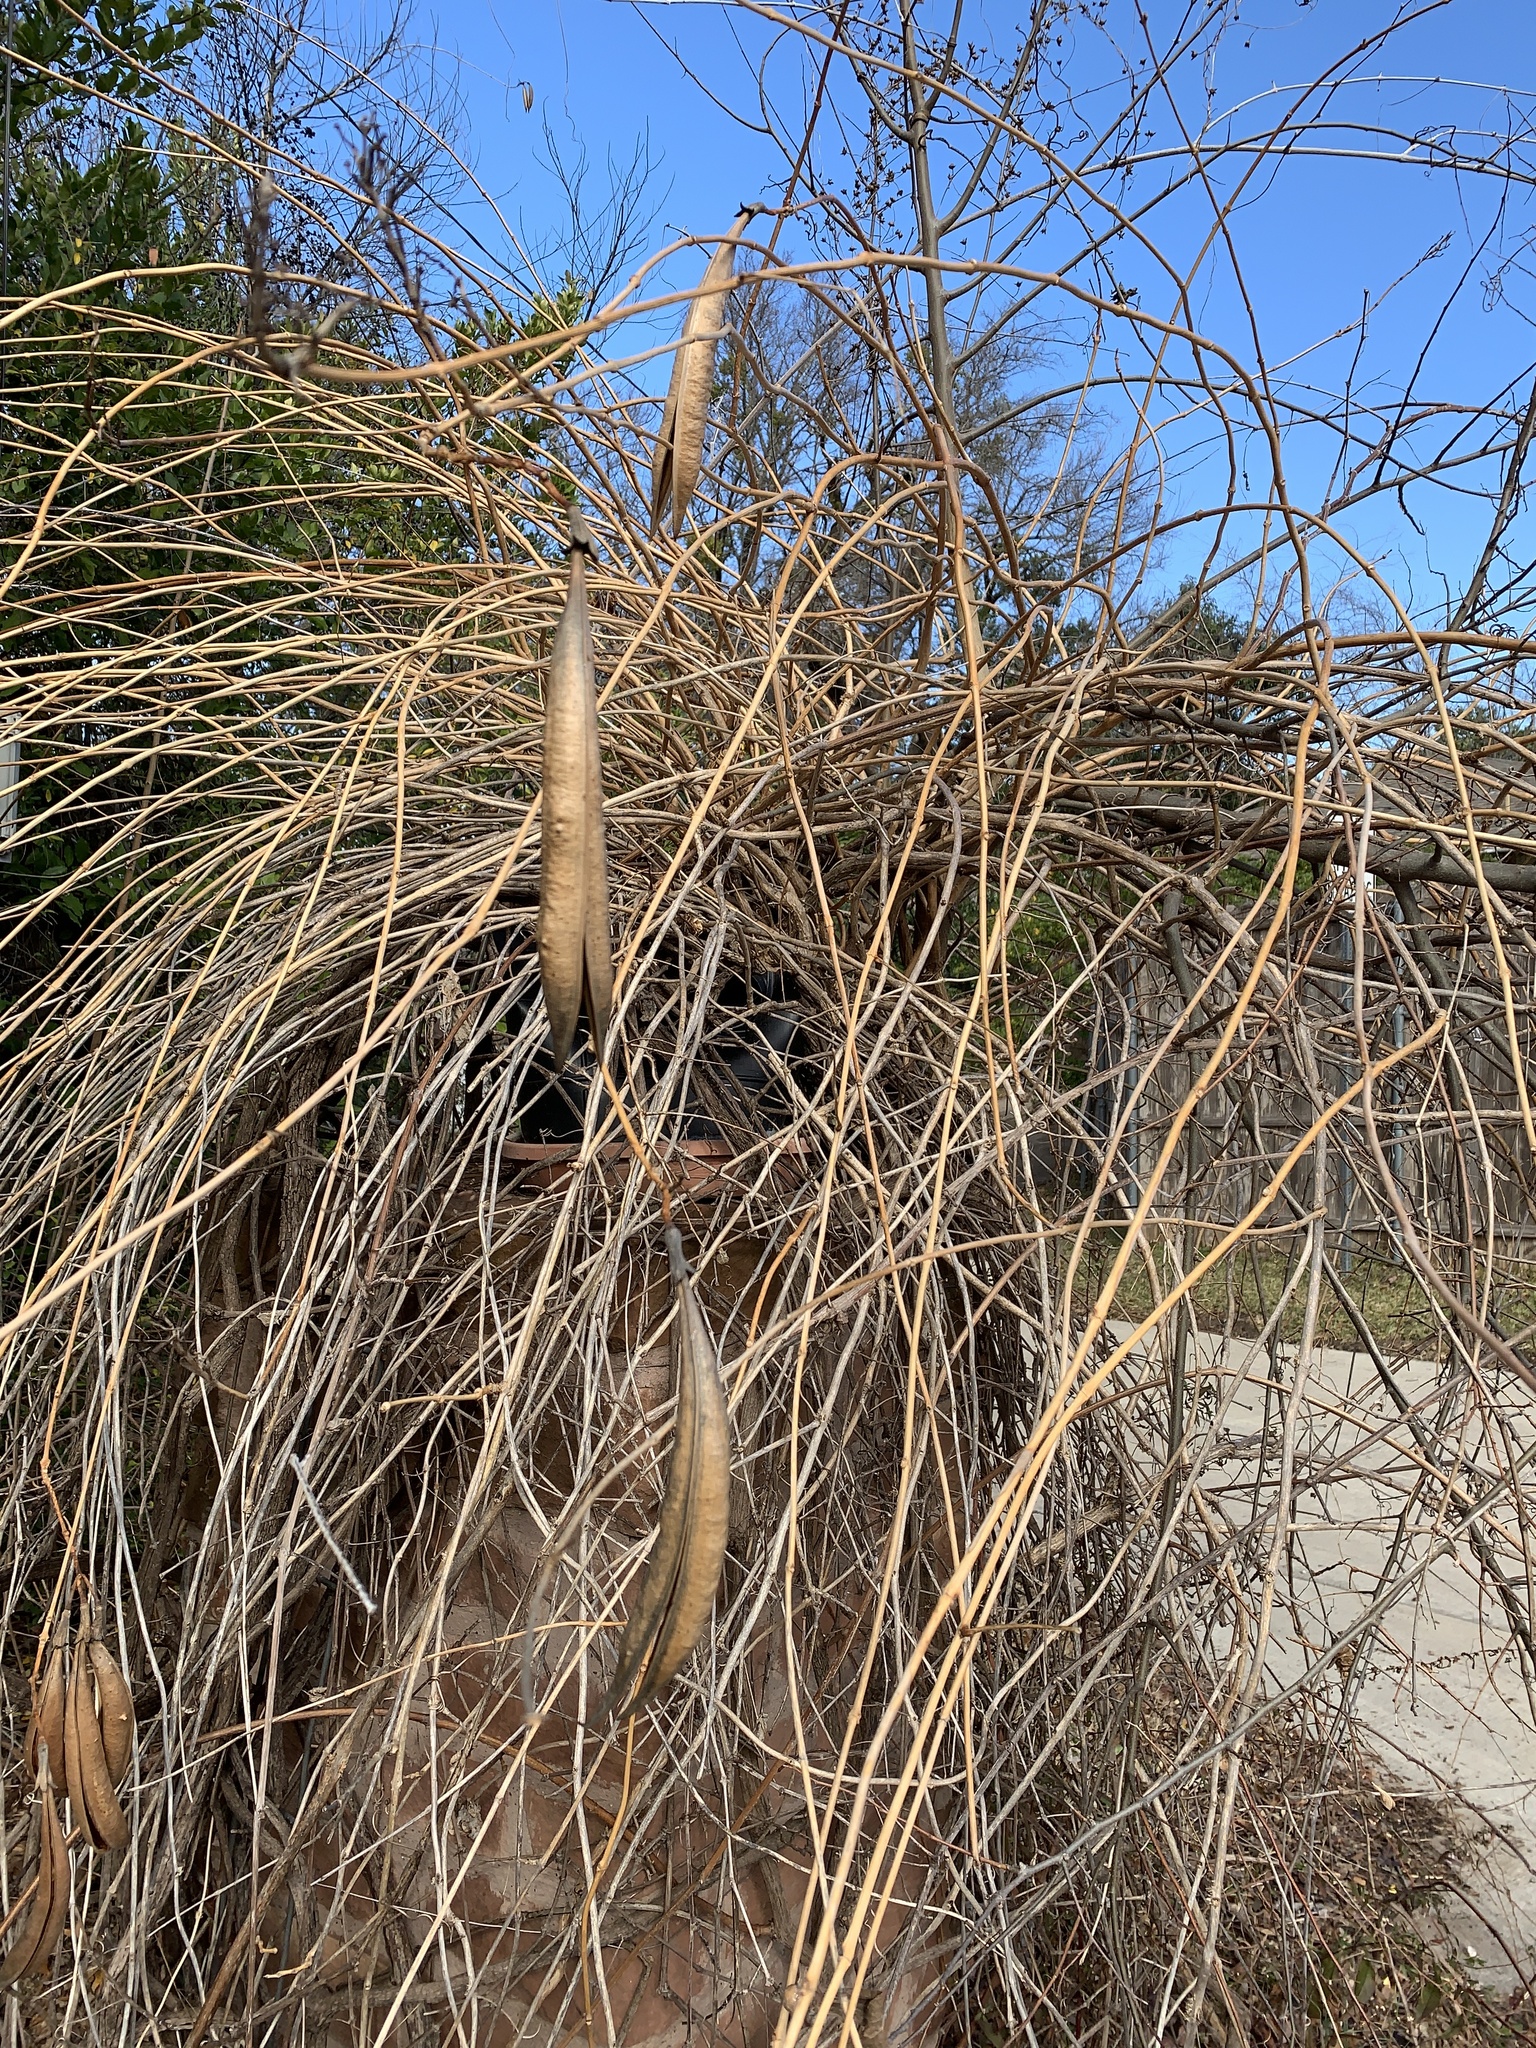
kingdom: Plantae
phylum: Tracheophyta
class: Magnoliopsida
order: Lamiales
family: Bignoniaceae
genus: Campsis
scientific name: Campsis radicans
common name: Trumpet-creeper
